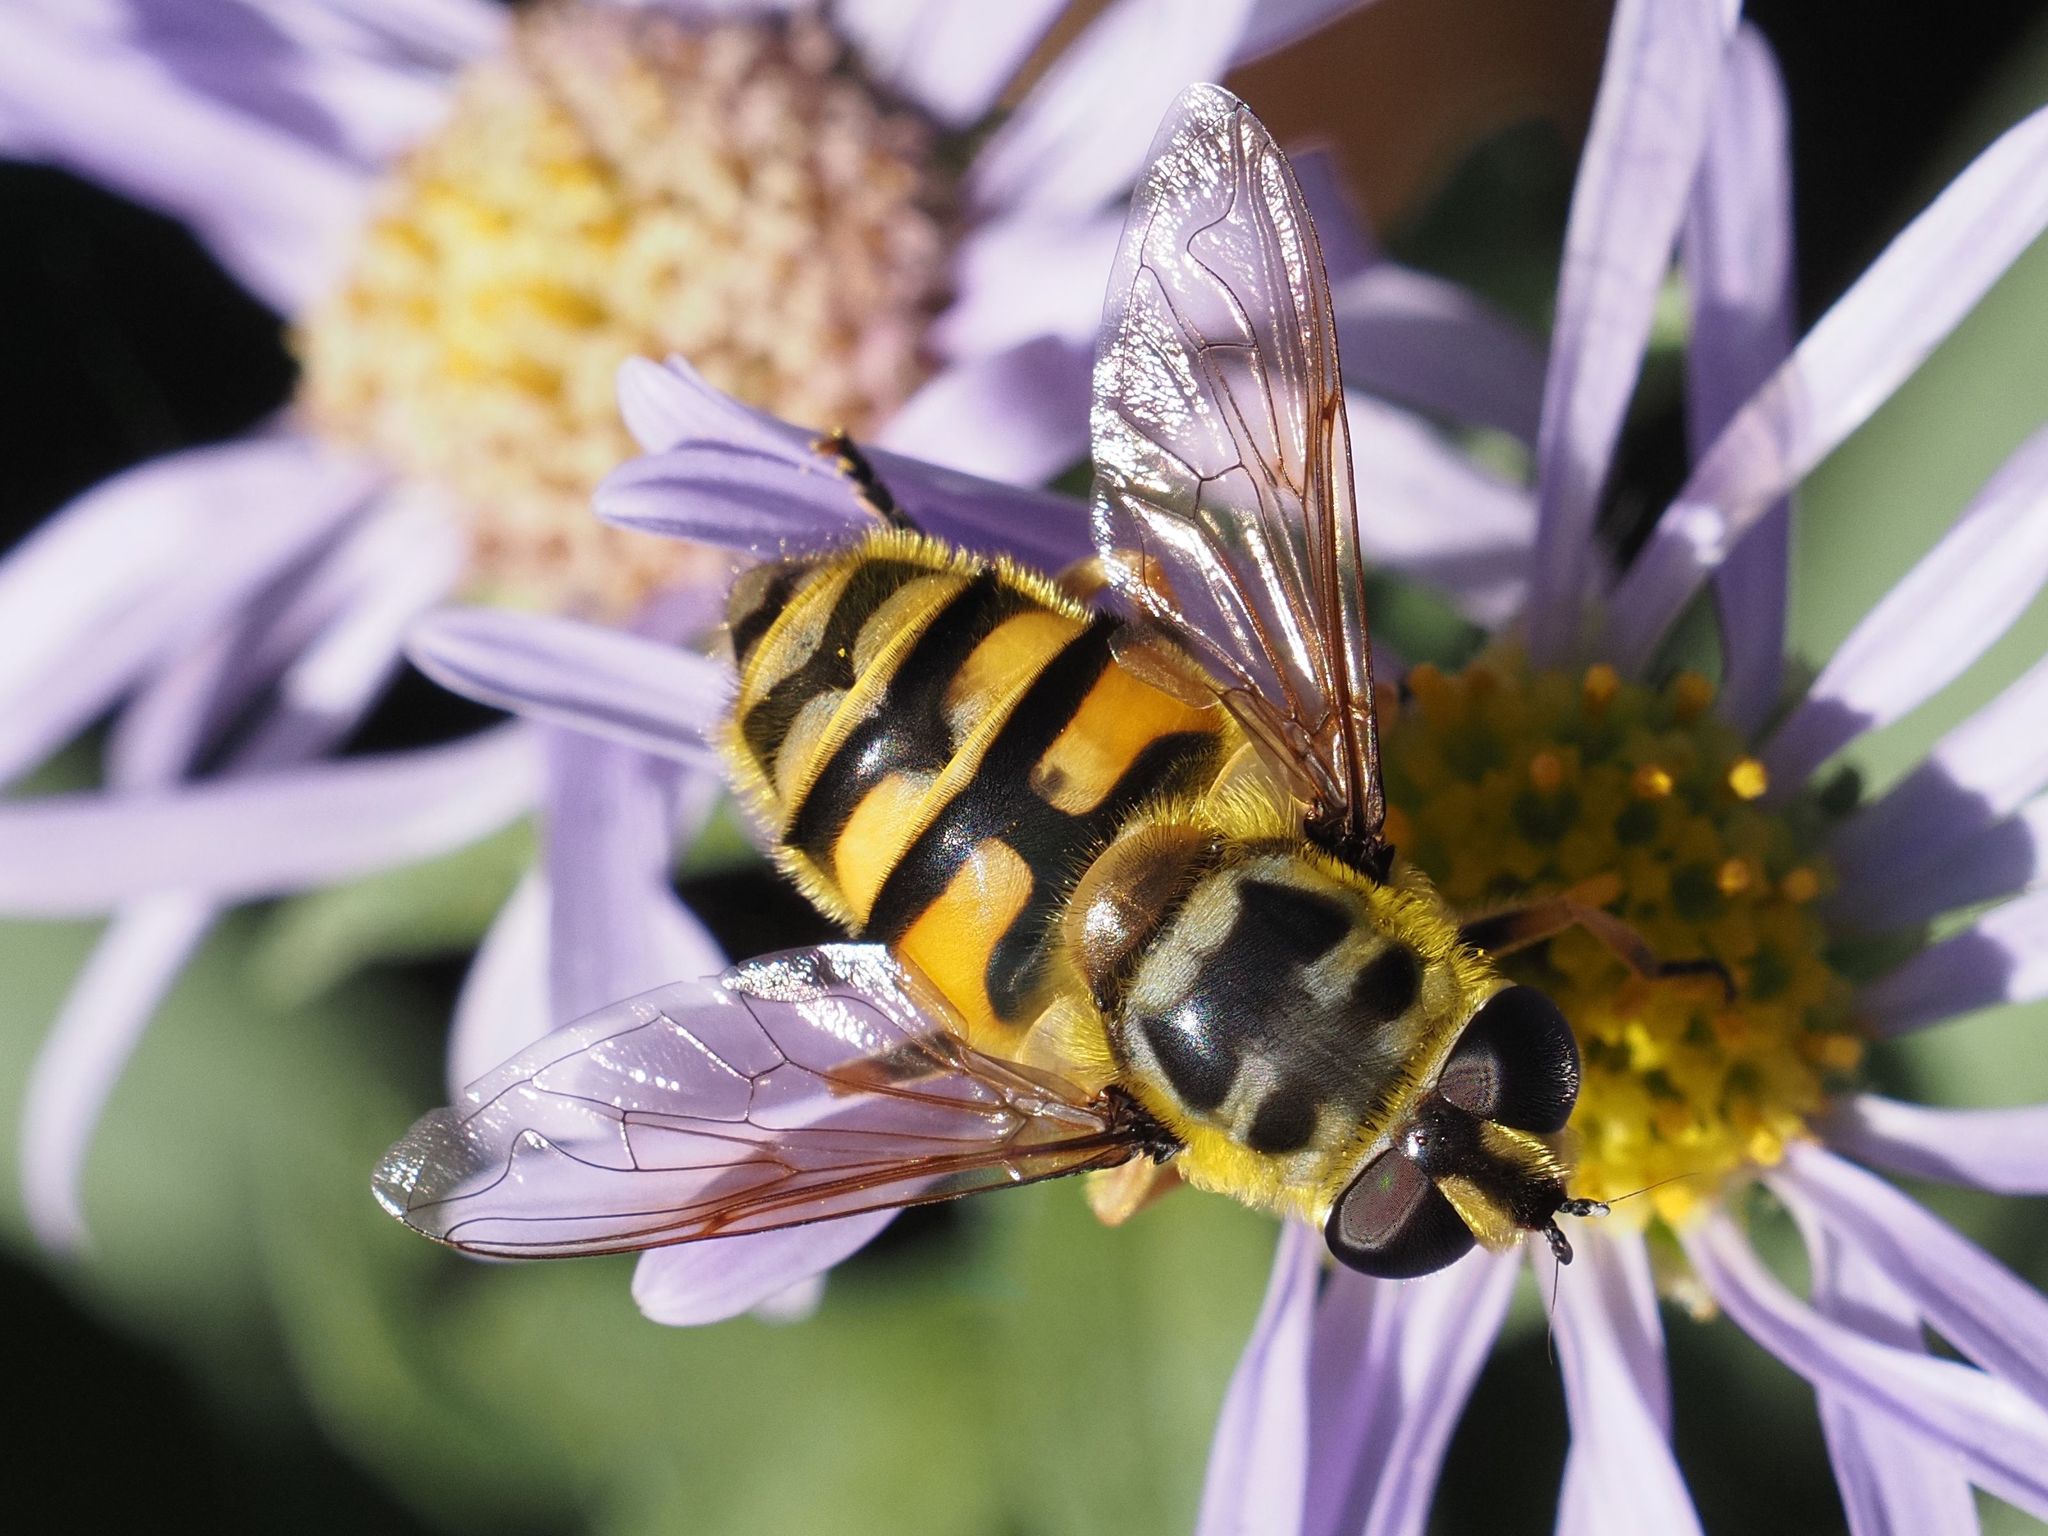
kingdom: Animalia
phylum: Arthropoda
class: Insecta
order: Diptera
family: Syrphidae
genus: Myathropa
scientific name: Myathropa florea
